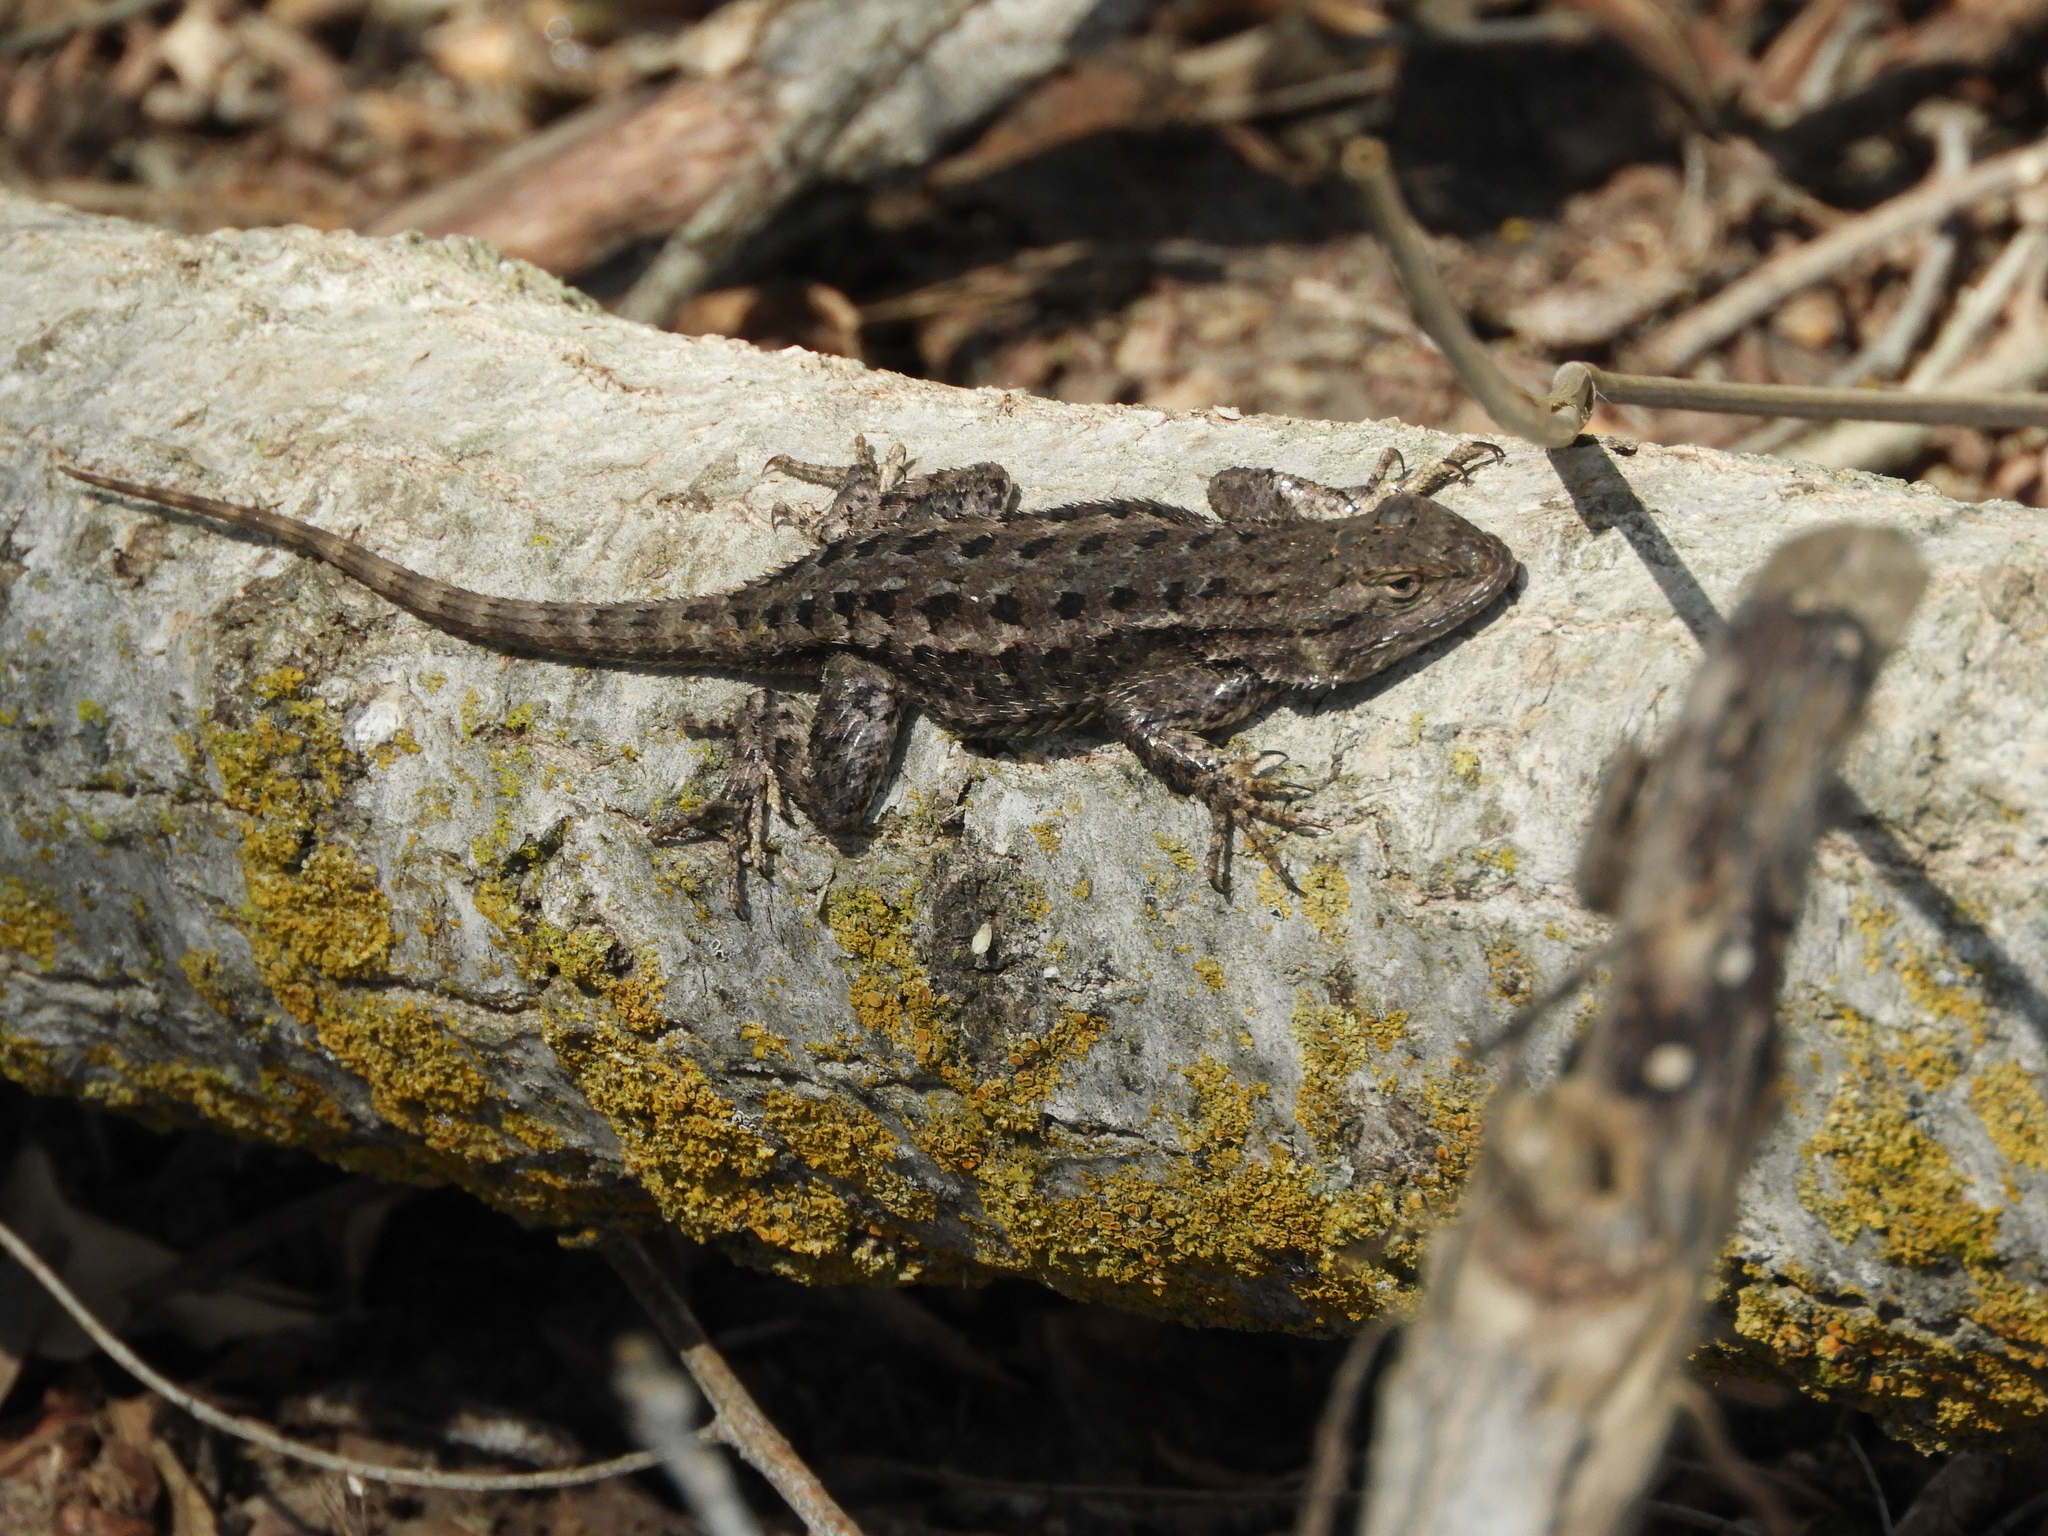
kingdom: Animalia
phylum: Chordata
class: Squamata
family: Phrynosomatidae
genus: Sceloporus
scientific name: Sceloporus occidentalis
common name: Western fence lizard
